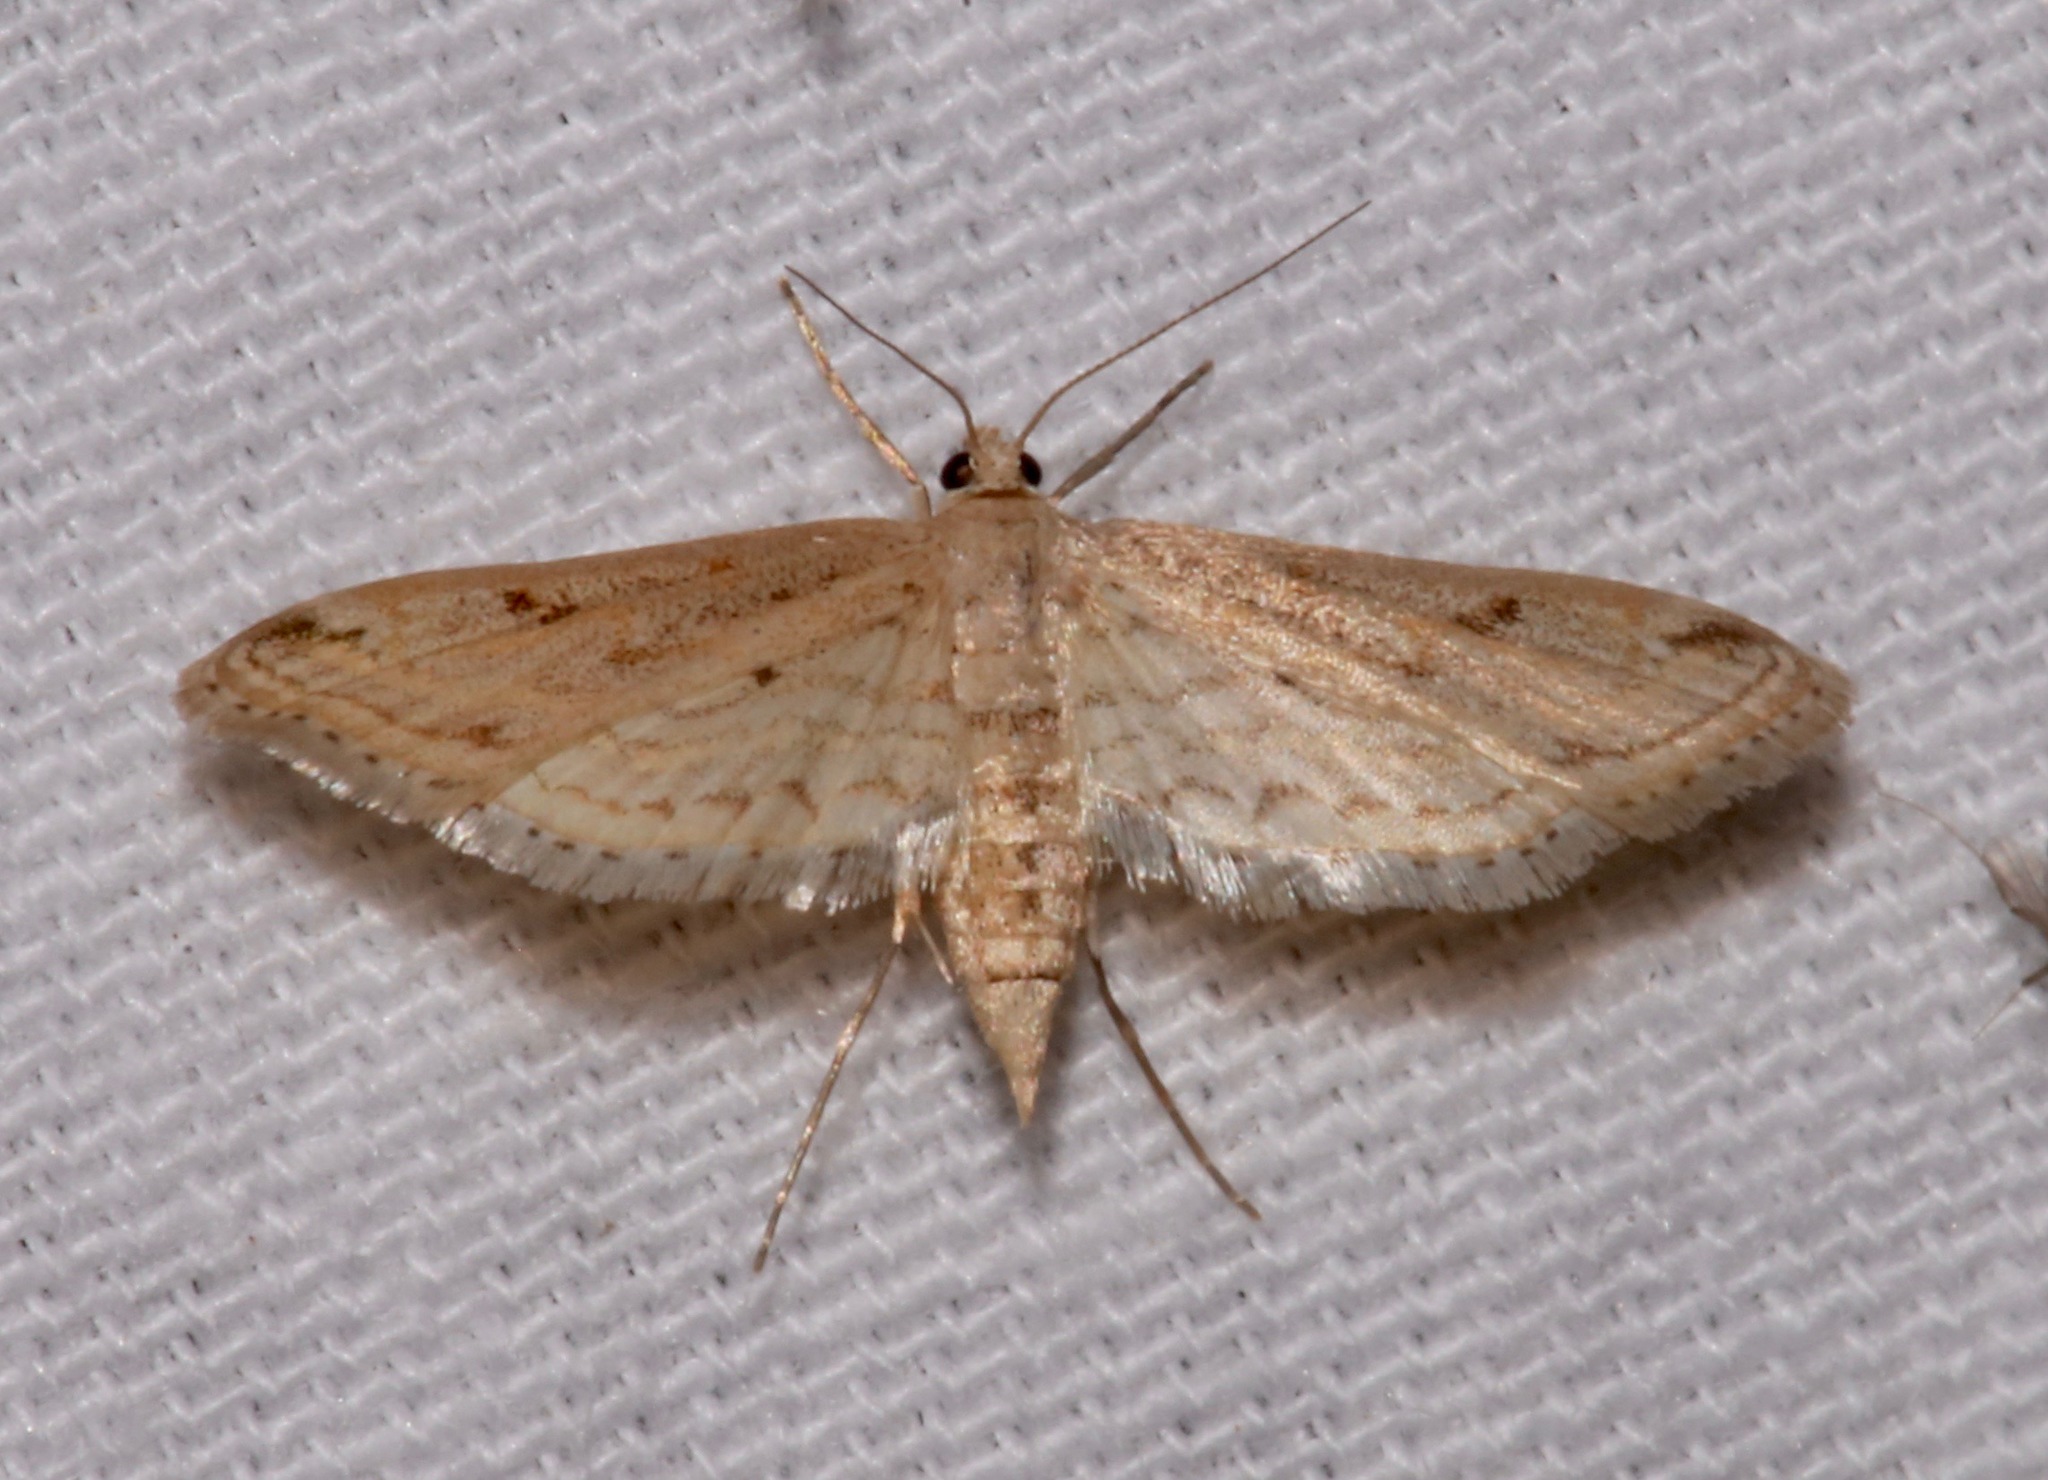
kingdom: Animalia
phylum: Arthropoda
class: Insecta
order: Lepidoptera
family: Crambidae
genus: Parapoynx
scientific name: Parapoynx allionealis
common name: Bladderwort casemaker
